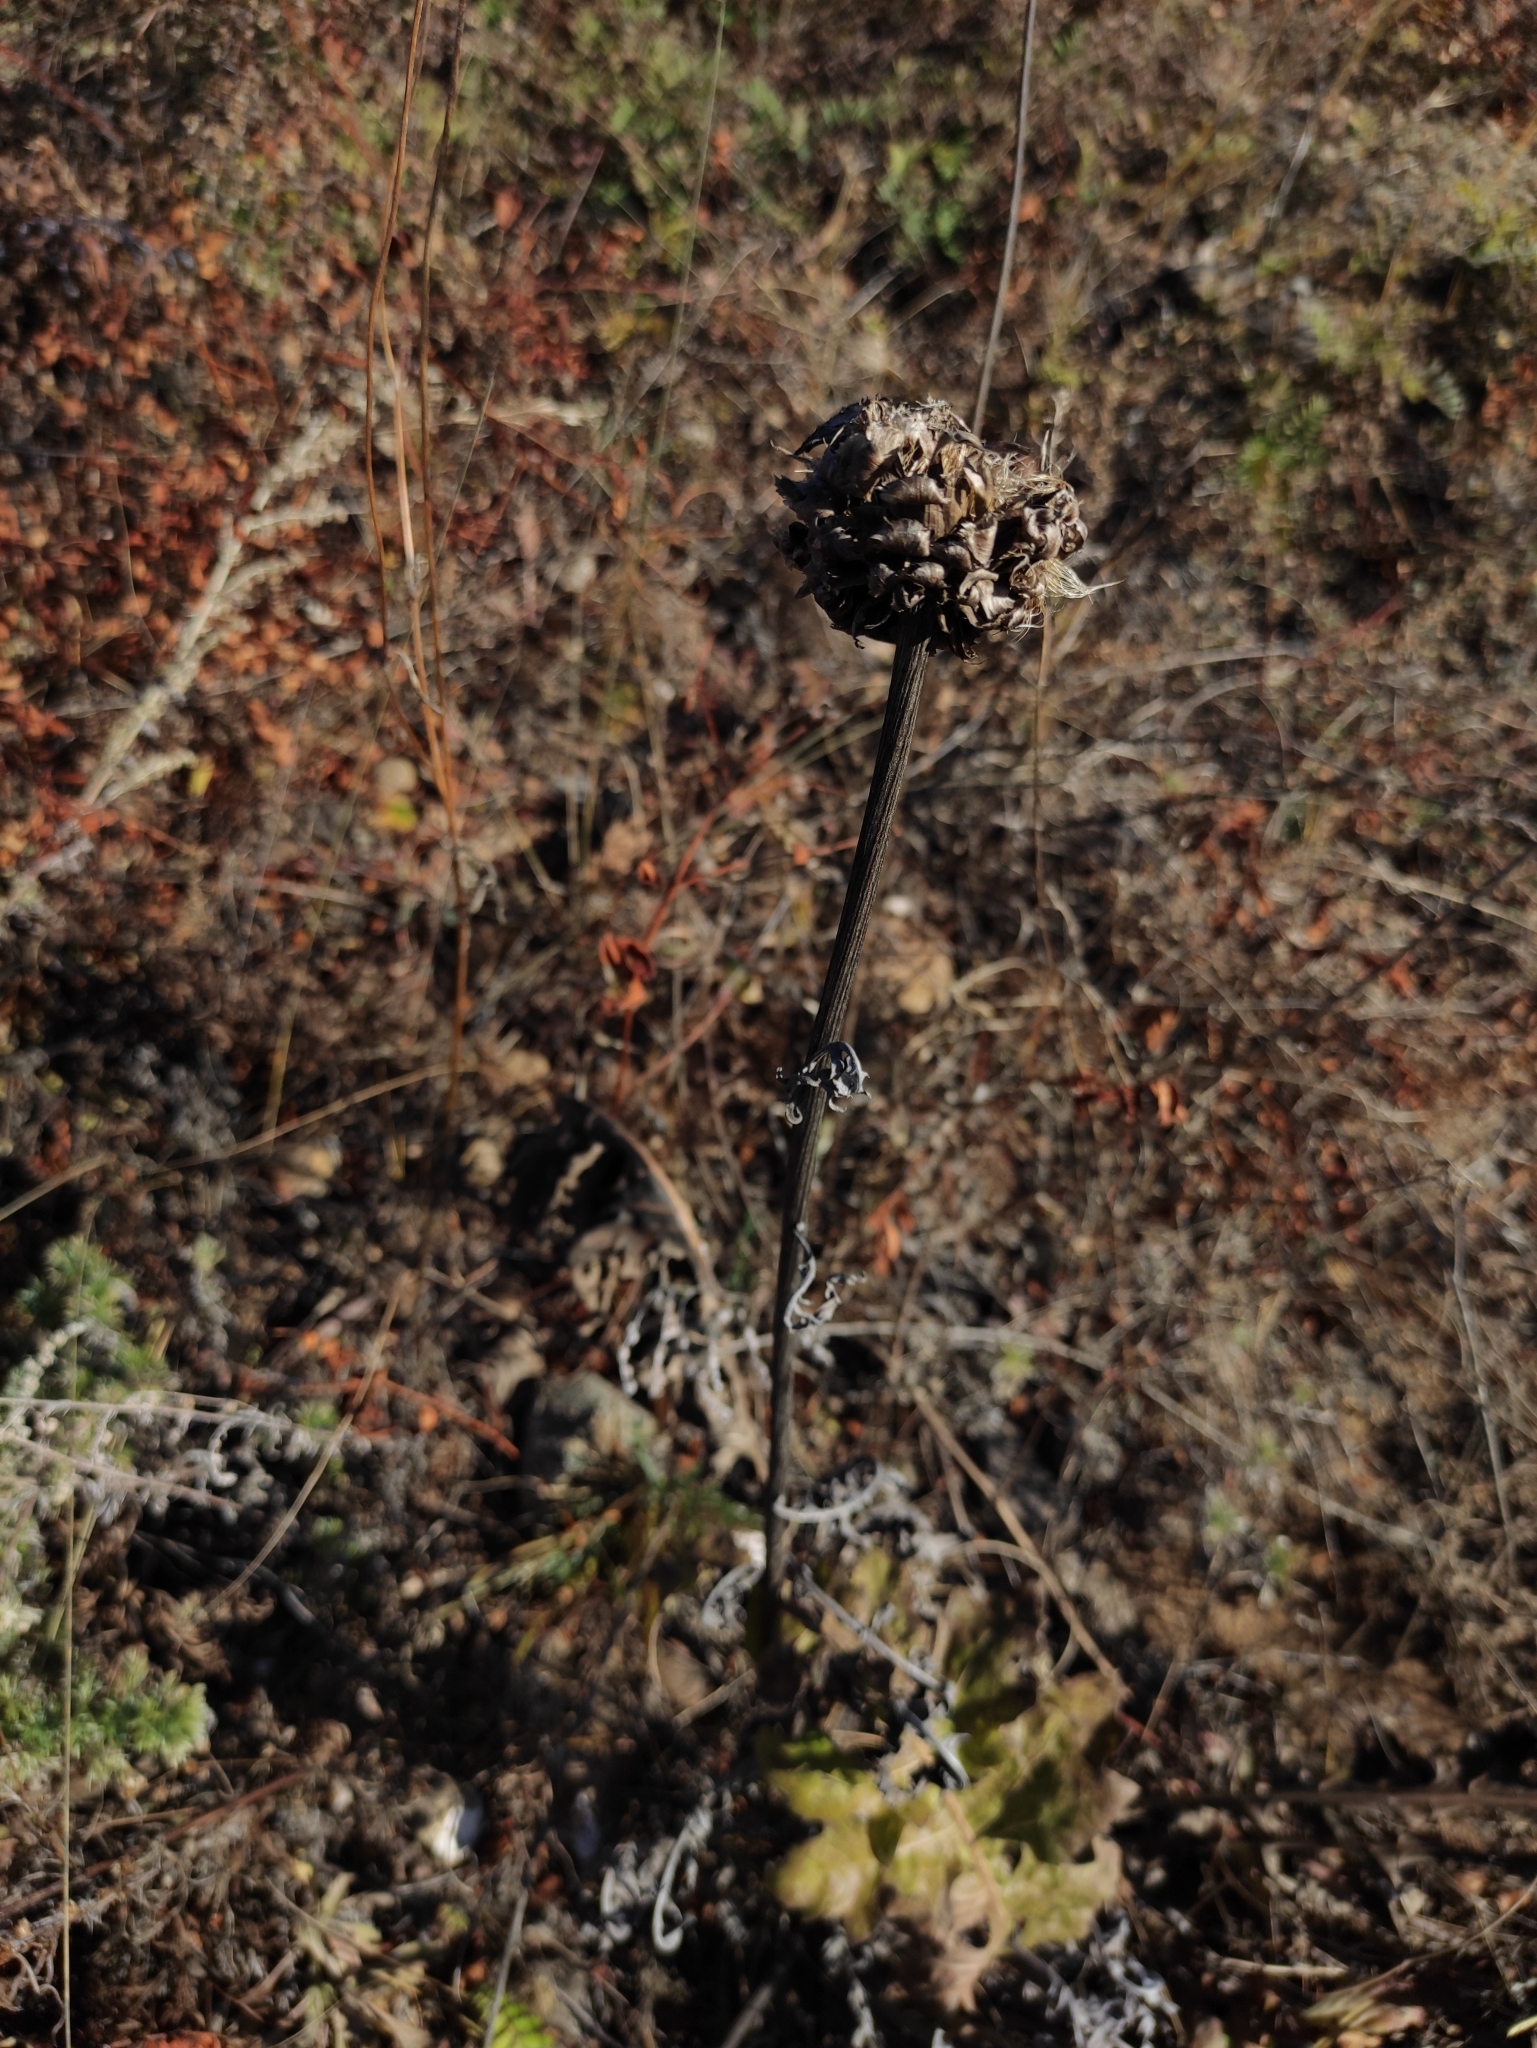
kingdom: Plantae
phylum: Tracheophyta
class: Magnoliopsida
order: Asterales
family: Asteraceae
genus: Leuzea
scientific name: Leuzea uniflora
